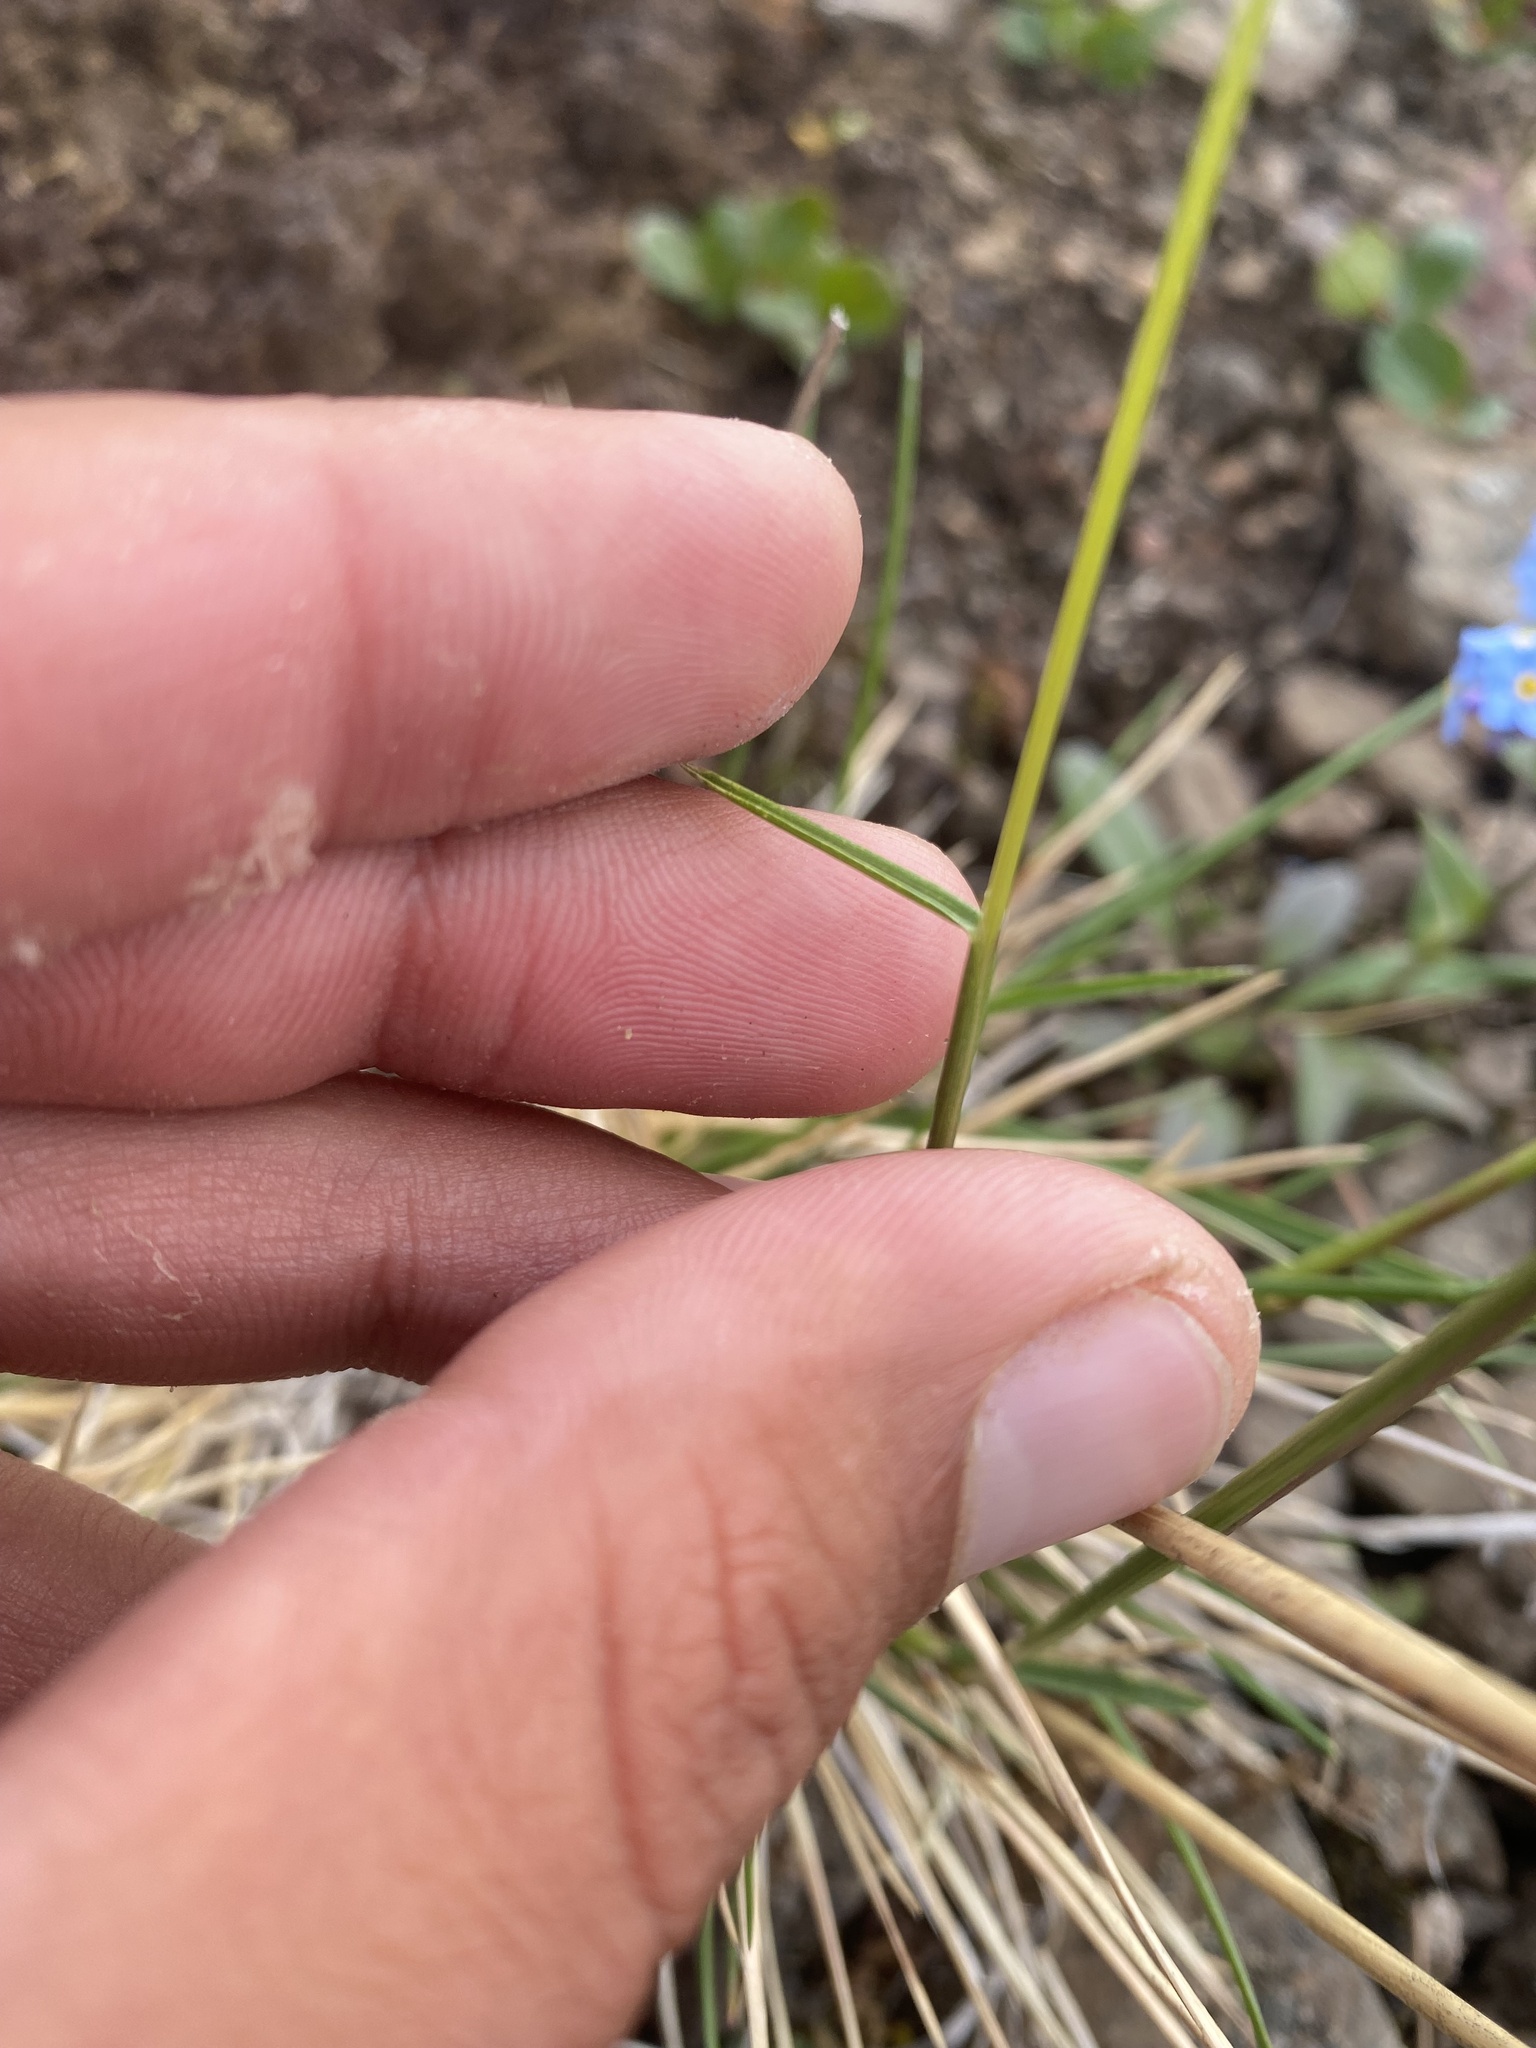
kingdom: Plantae
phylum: Tracheophyta
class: Liliopsida
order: Poales
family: Poaceae
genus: Deschampsia
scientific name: Deschampsia cespitosa
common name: Tufted hair-grass
